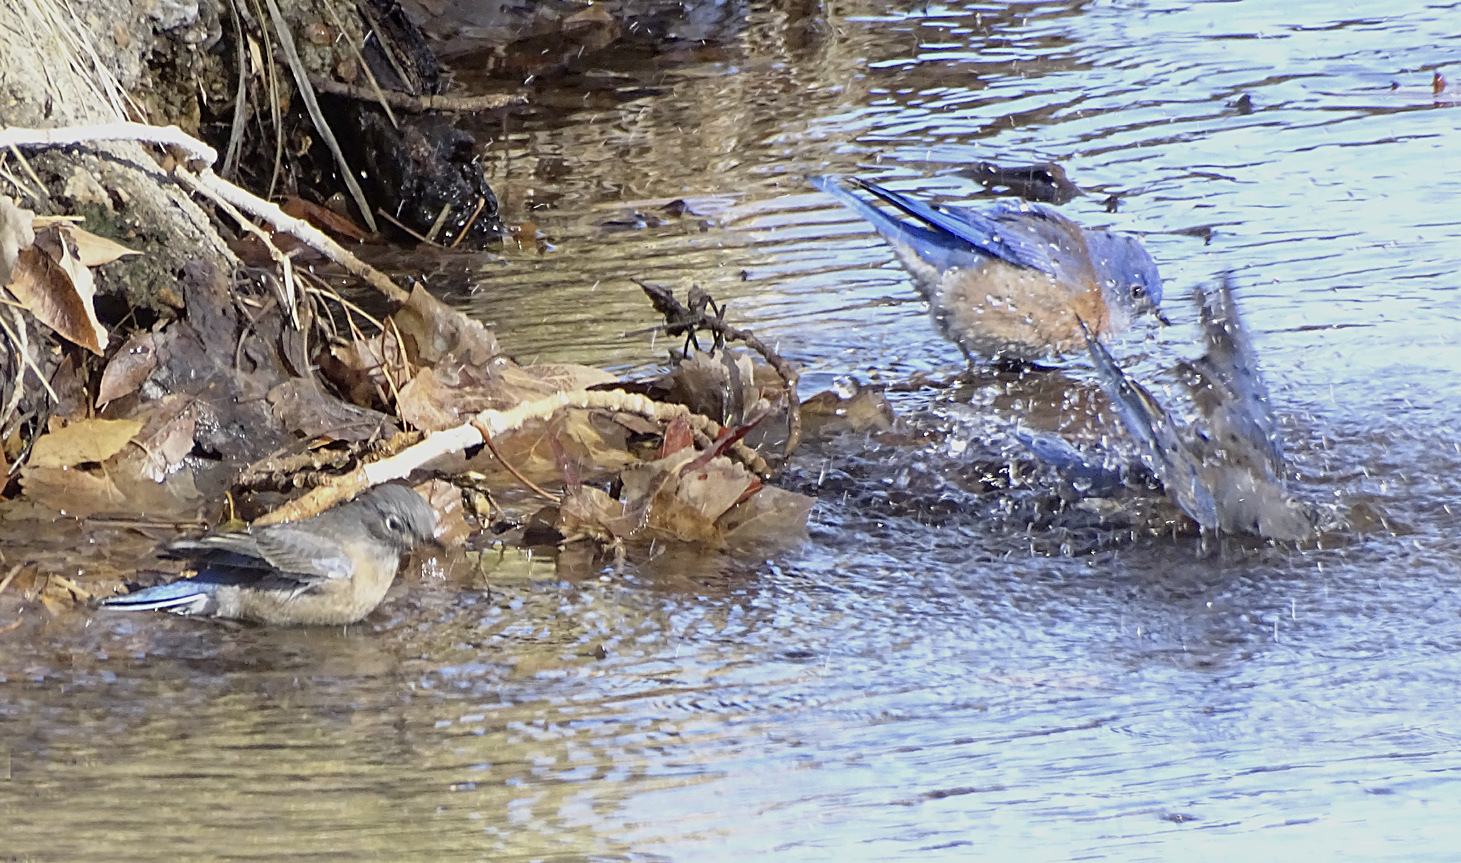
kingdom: Animalia
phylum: Chordata
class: Aves
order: Passeriformes
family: Turdidae
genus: Sialia
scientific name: Sialia mexicana
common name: Western bluebird
